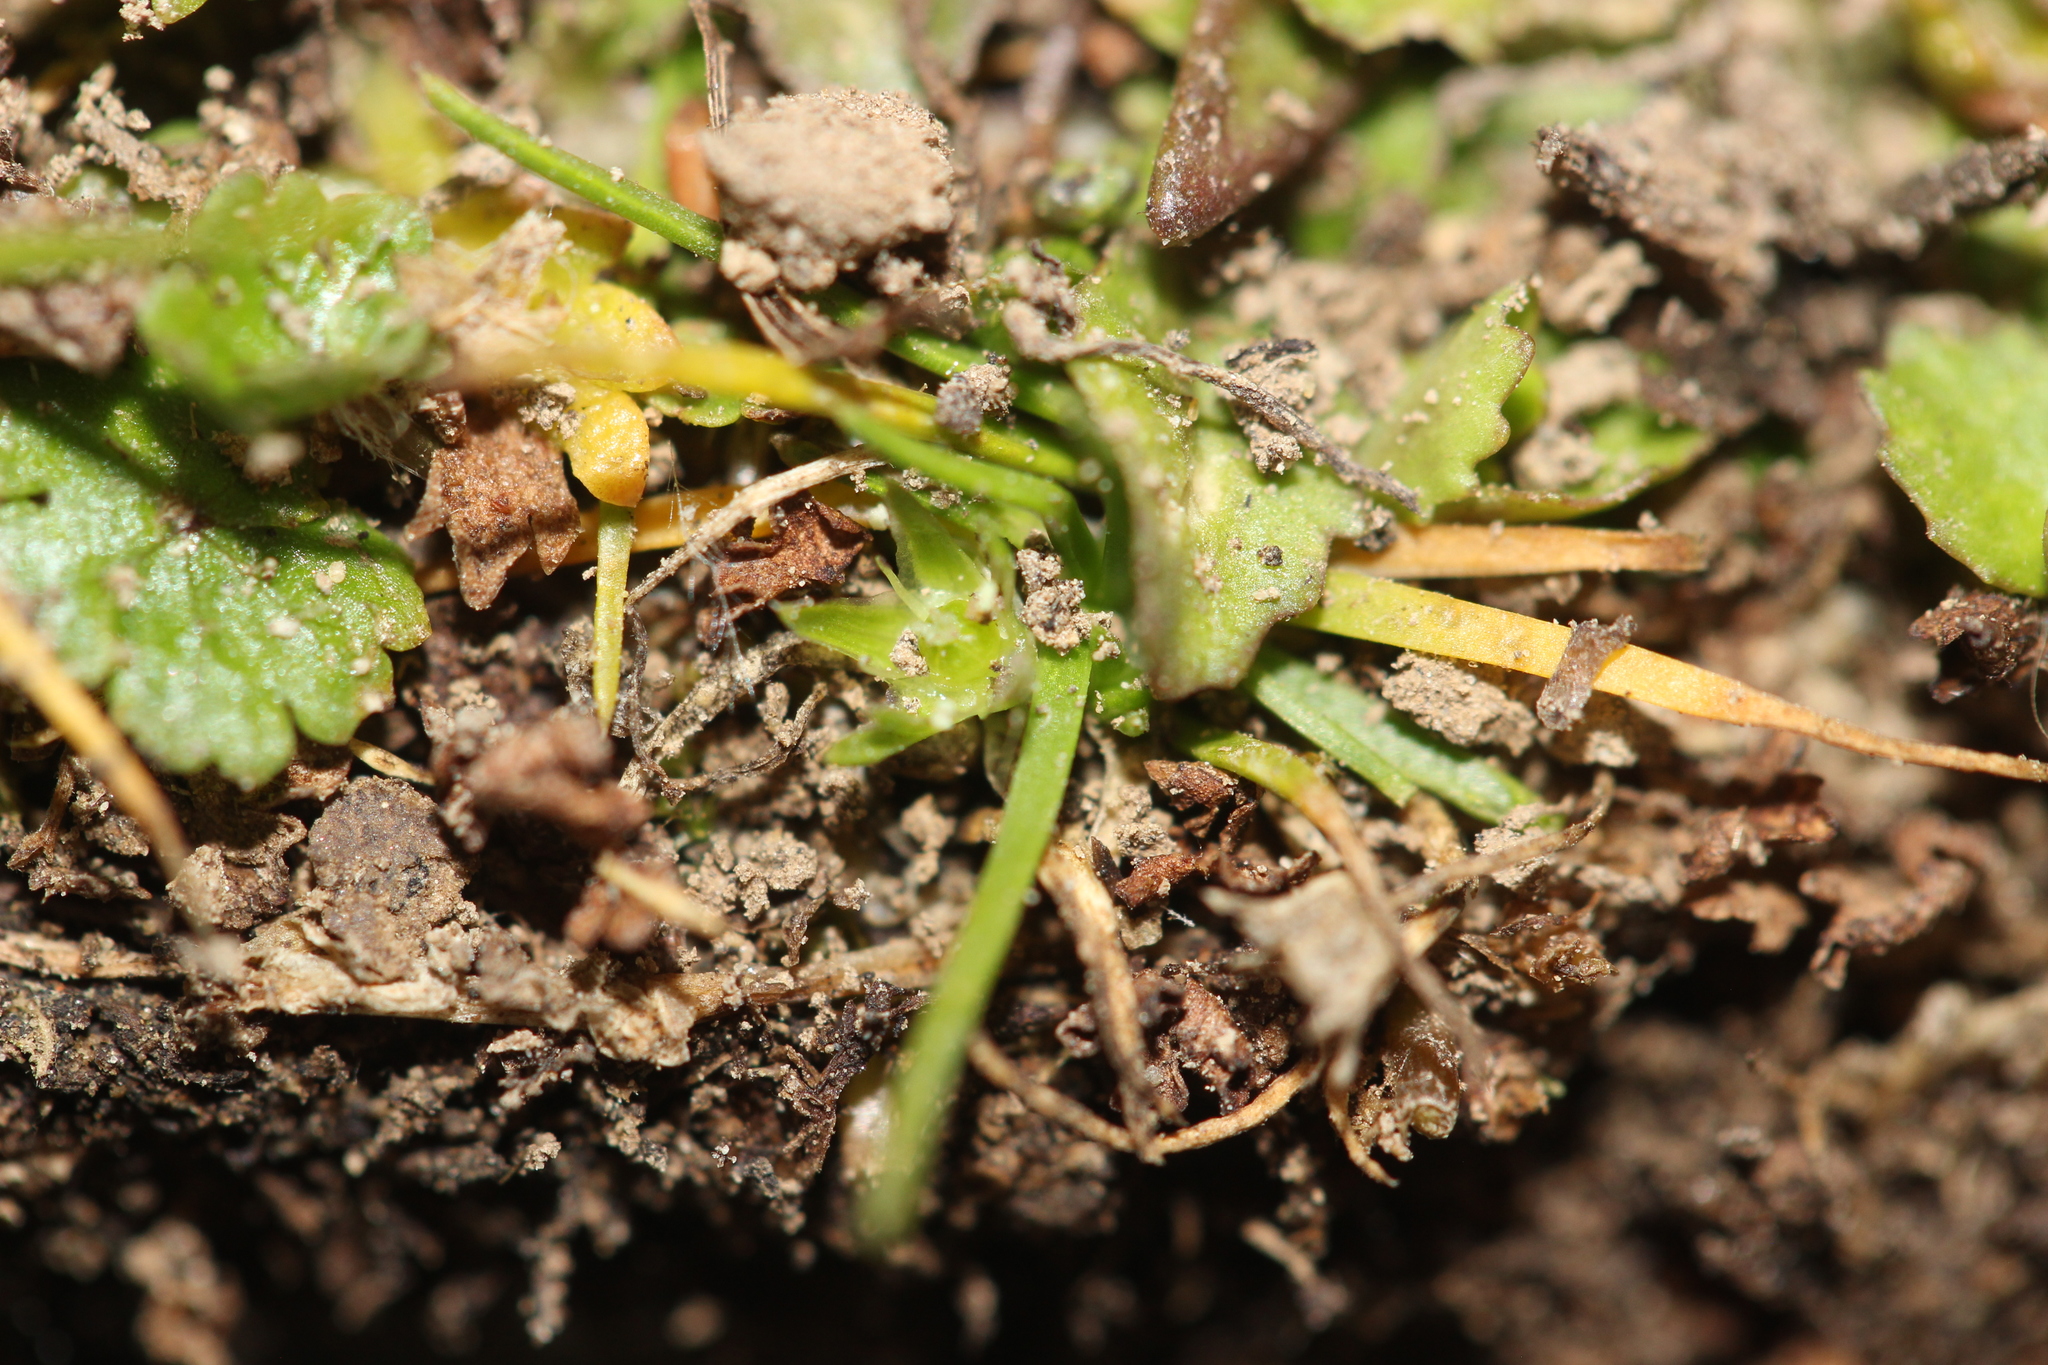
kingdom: Plantae
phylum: Tracheophyta
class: Magnoliopsida
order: Caryophyllales
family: Caryophyllaceae
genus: Colobanthus
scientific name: Colobanthus muelleri
